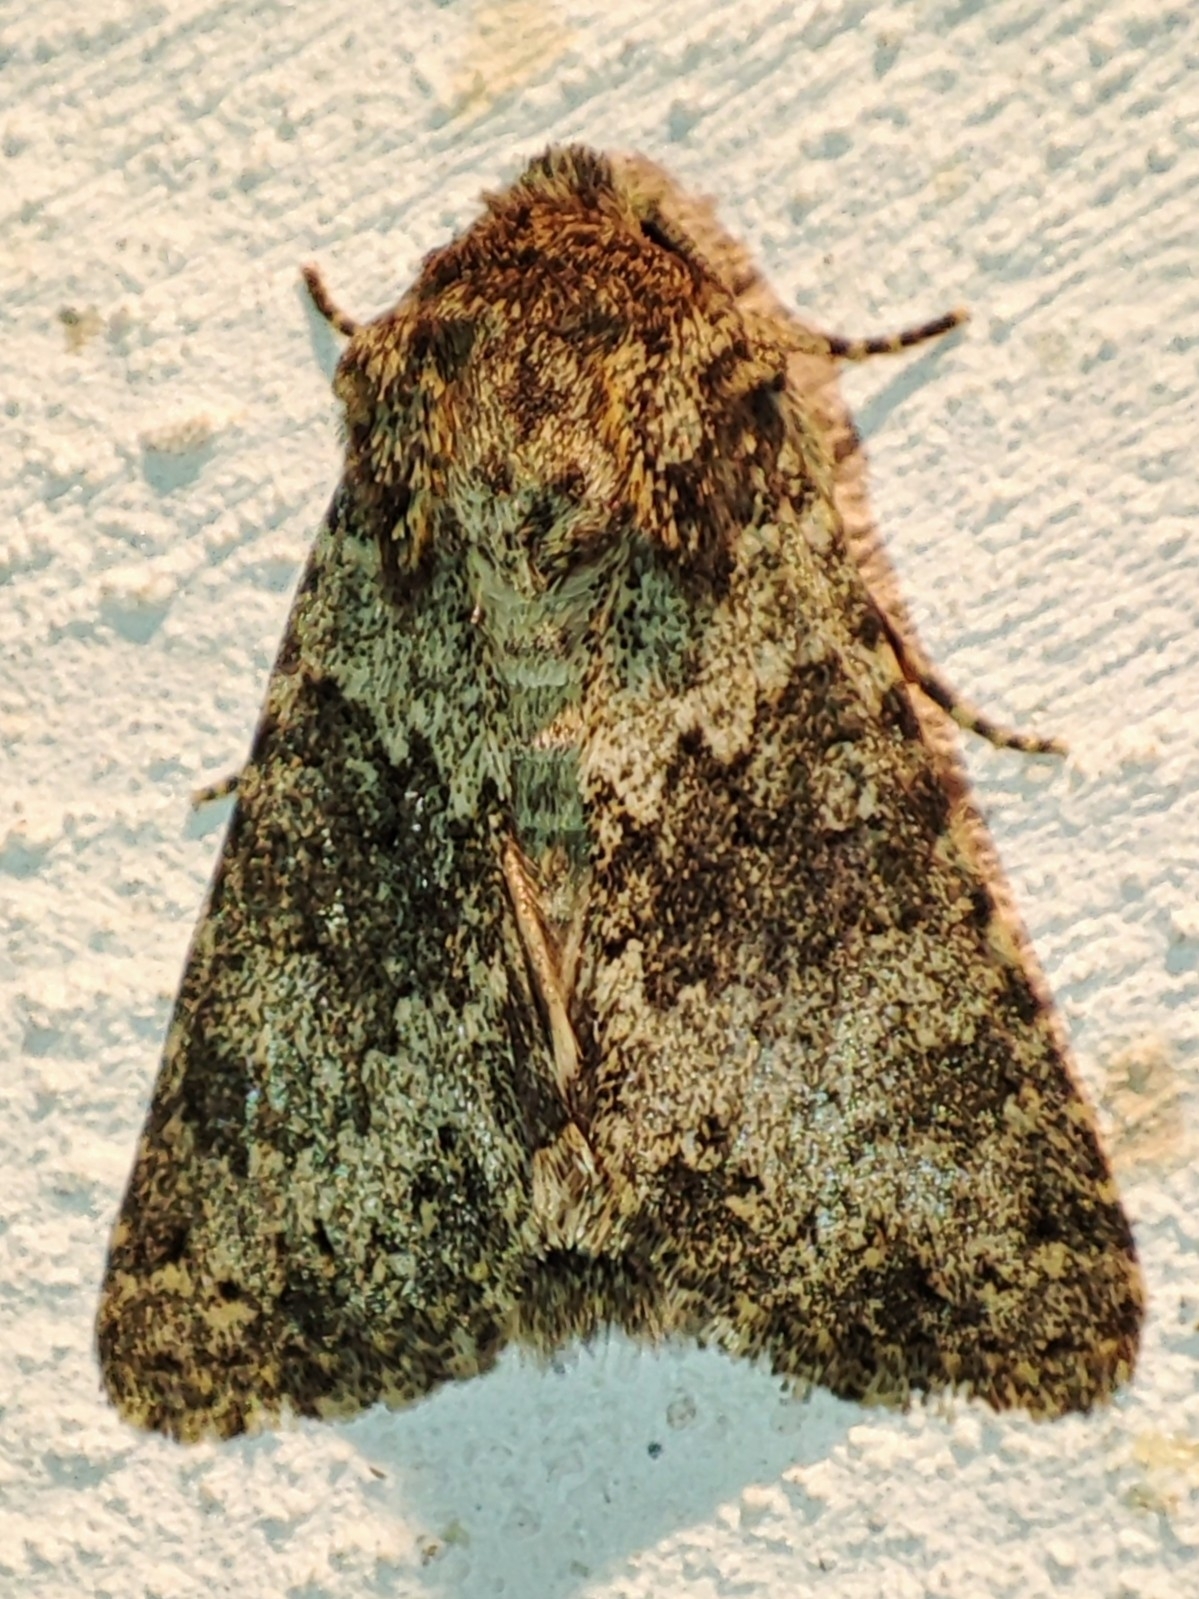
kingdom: Animalia
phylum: Arthropoda
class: Insecta
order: Lepidoptera
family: Noctuidae
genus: Hecatera
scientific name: Hecatera dysodea
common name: Small ranunculus
